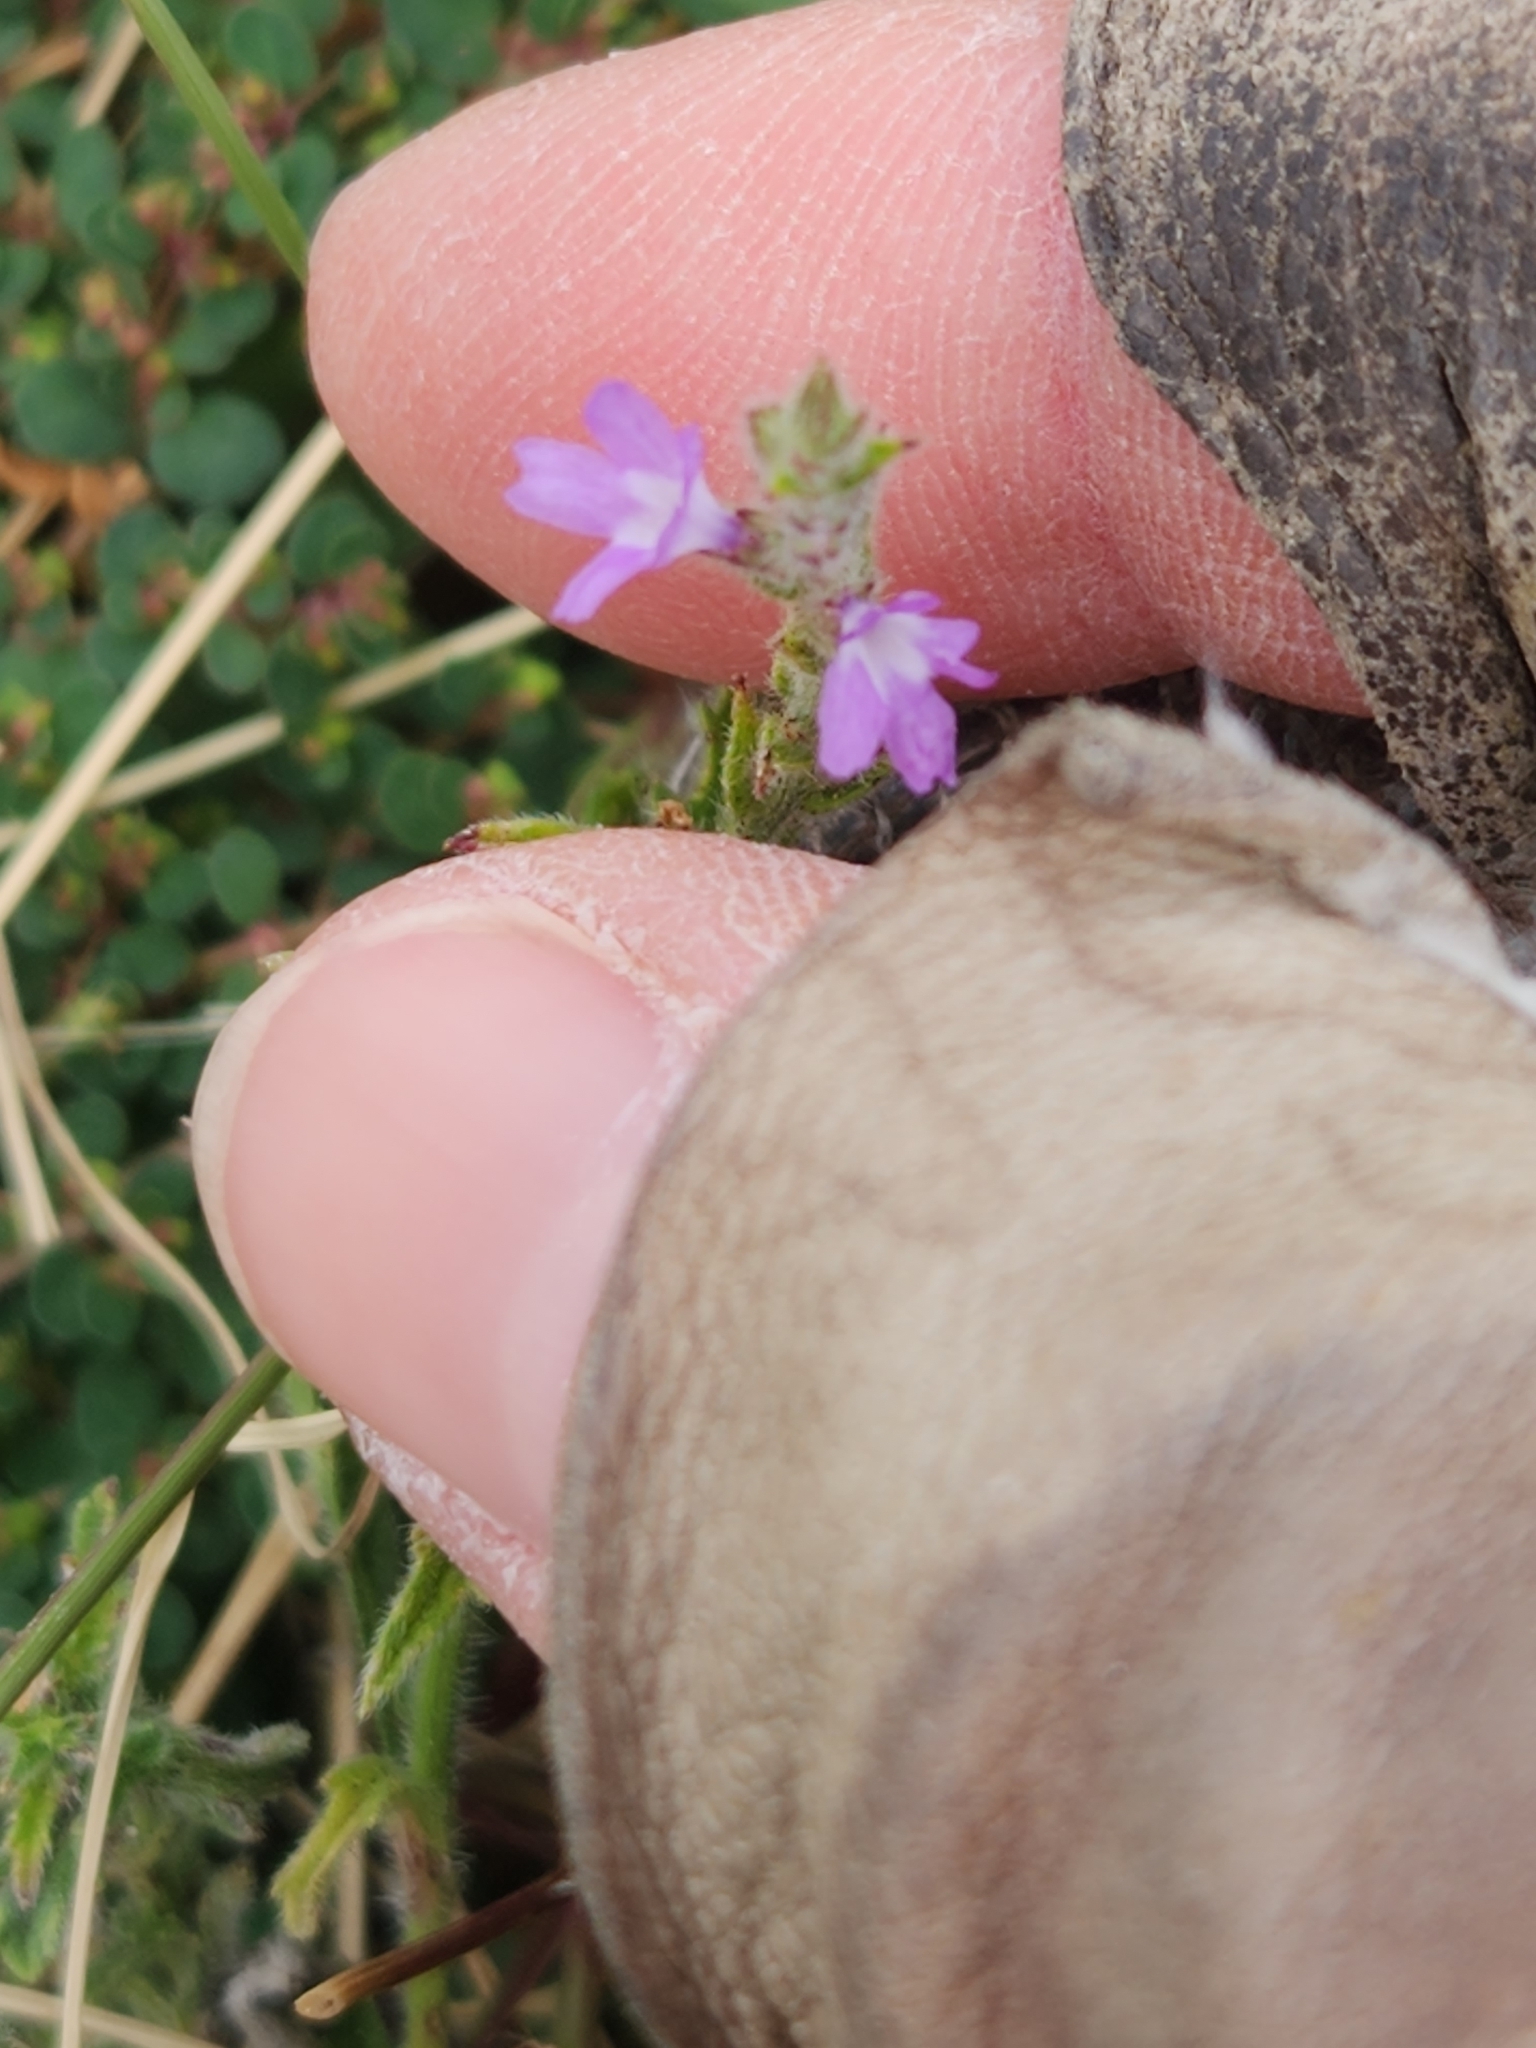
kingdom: Plantae
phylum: Tracheophyta
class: Magnoliopsida
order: Lamiales
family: Verbenaceae
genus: Verbena
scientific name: Verbena canescens
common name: Gray vervain
